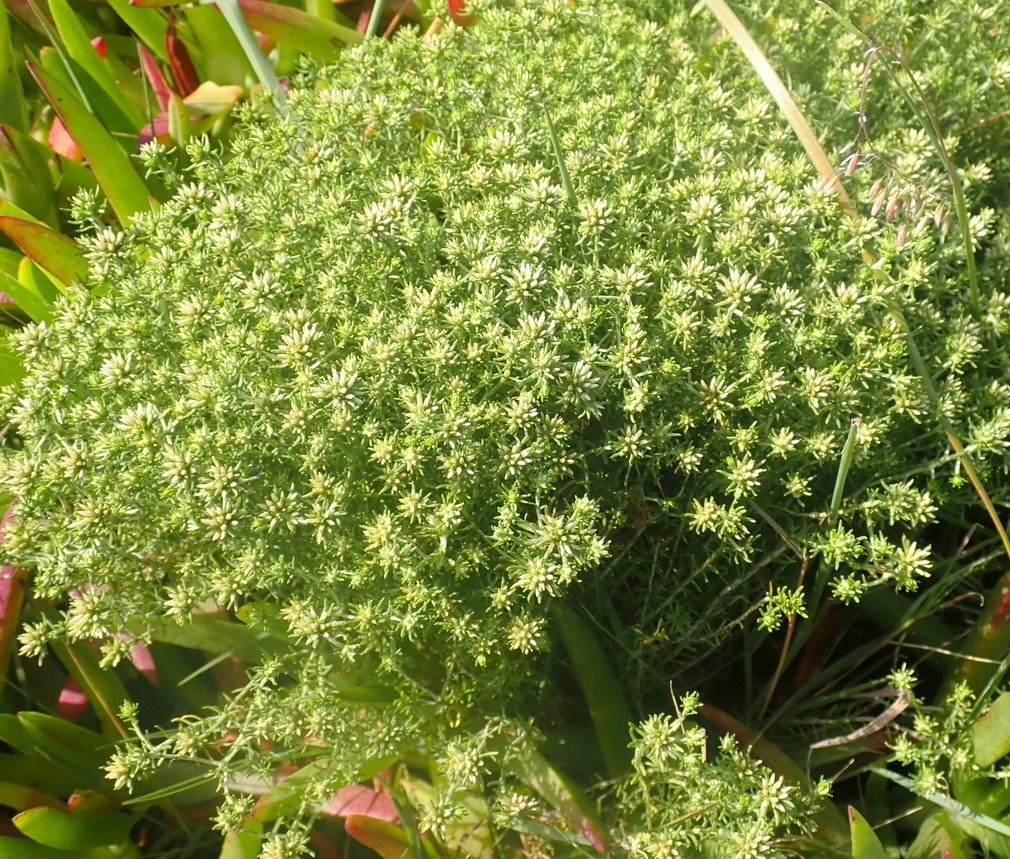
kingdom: Plantae
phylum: Tracheophyta
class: Magnoliopsida
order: Asterales
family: Asteraceae
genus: Helichrysum
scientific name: Helichrysum niveum
